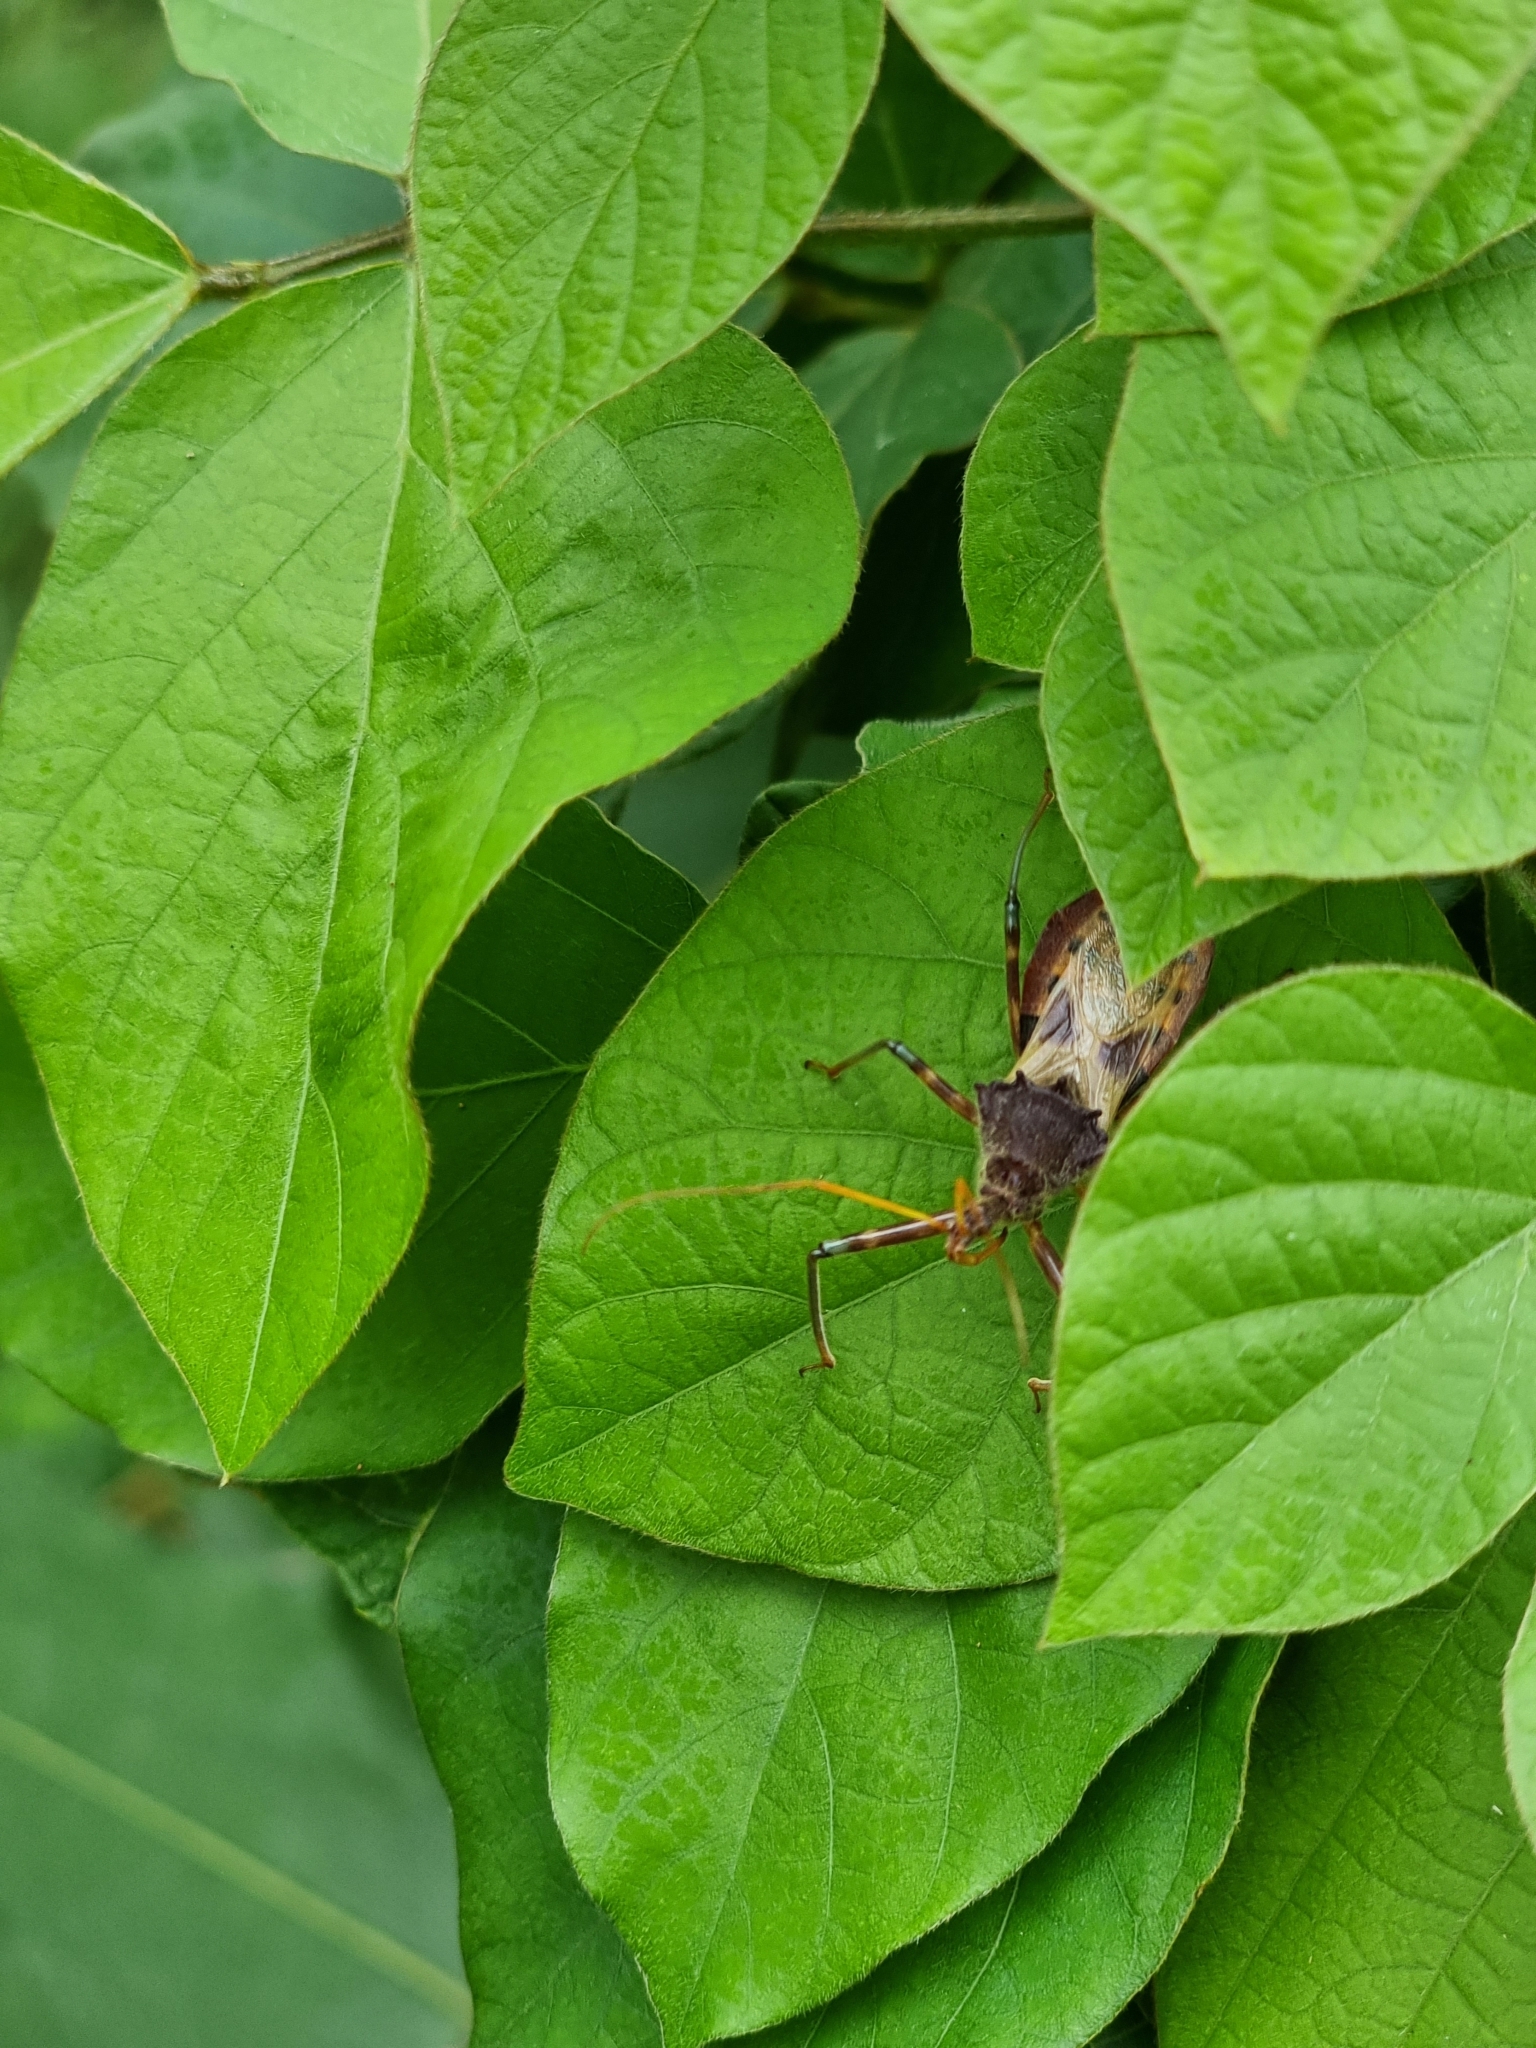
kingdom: Animalia
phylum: Arthropoda
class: Insecta
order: Hemiptera
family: Reduviidae
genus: Pristhesancus
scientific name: Pristhesancus plagipennis
